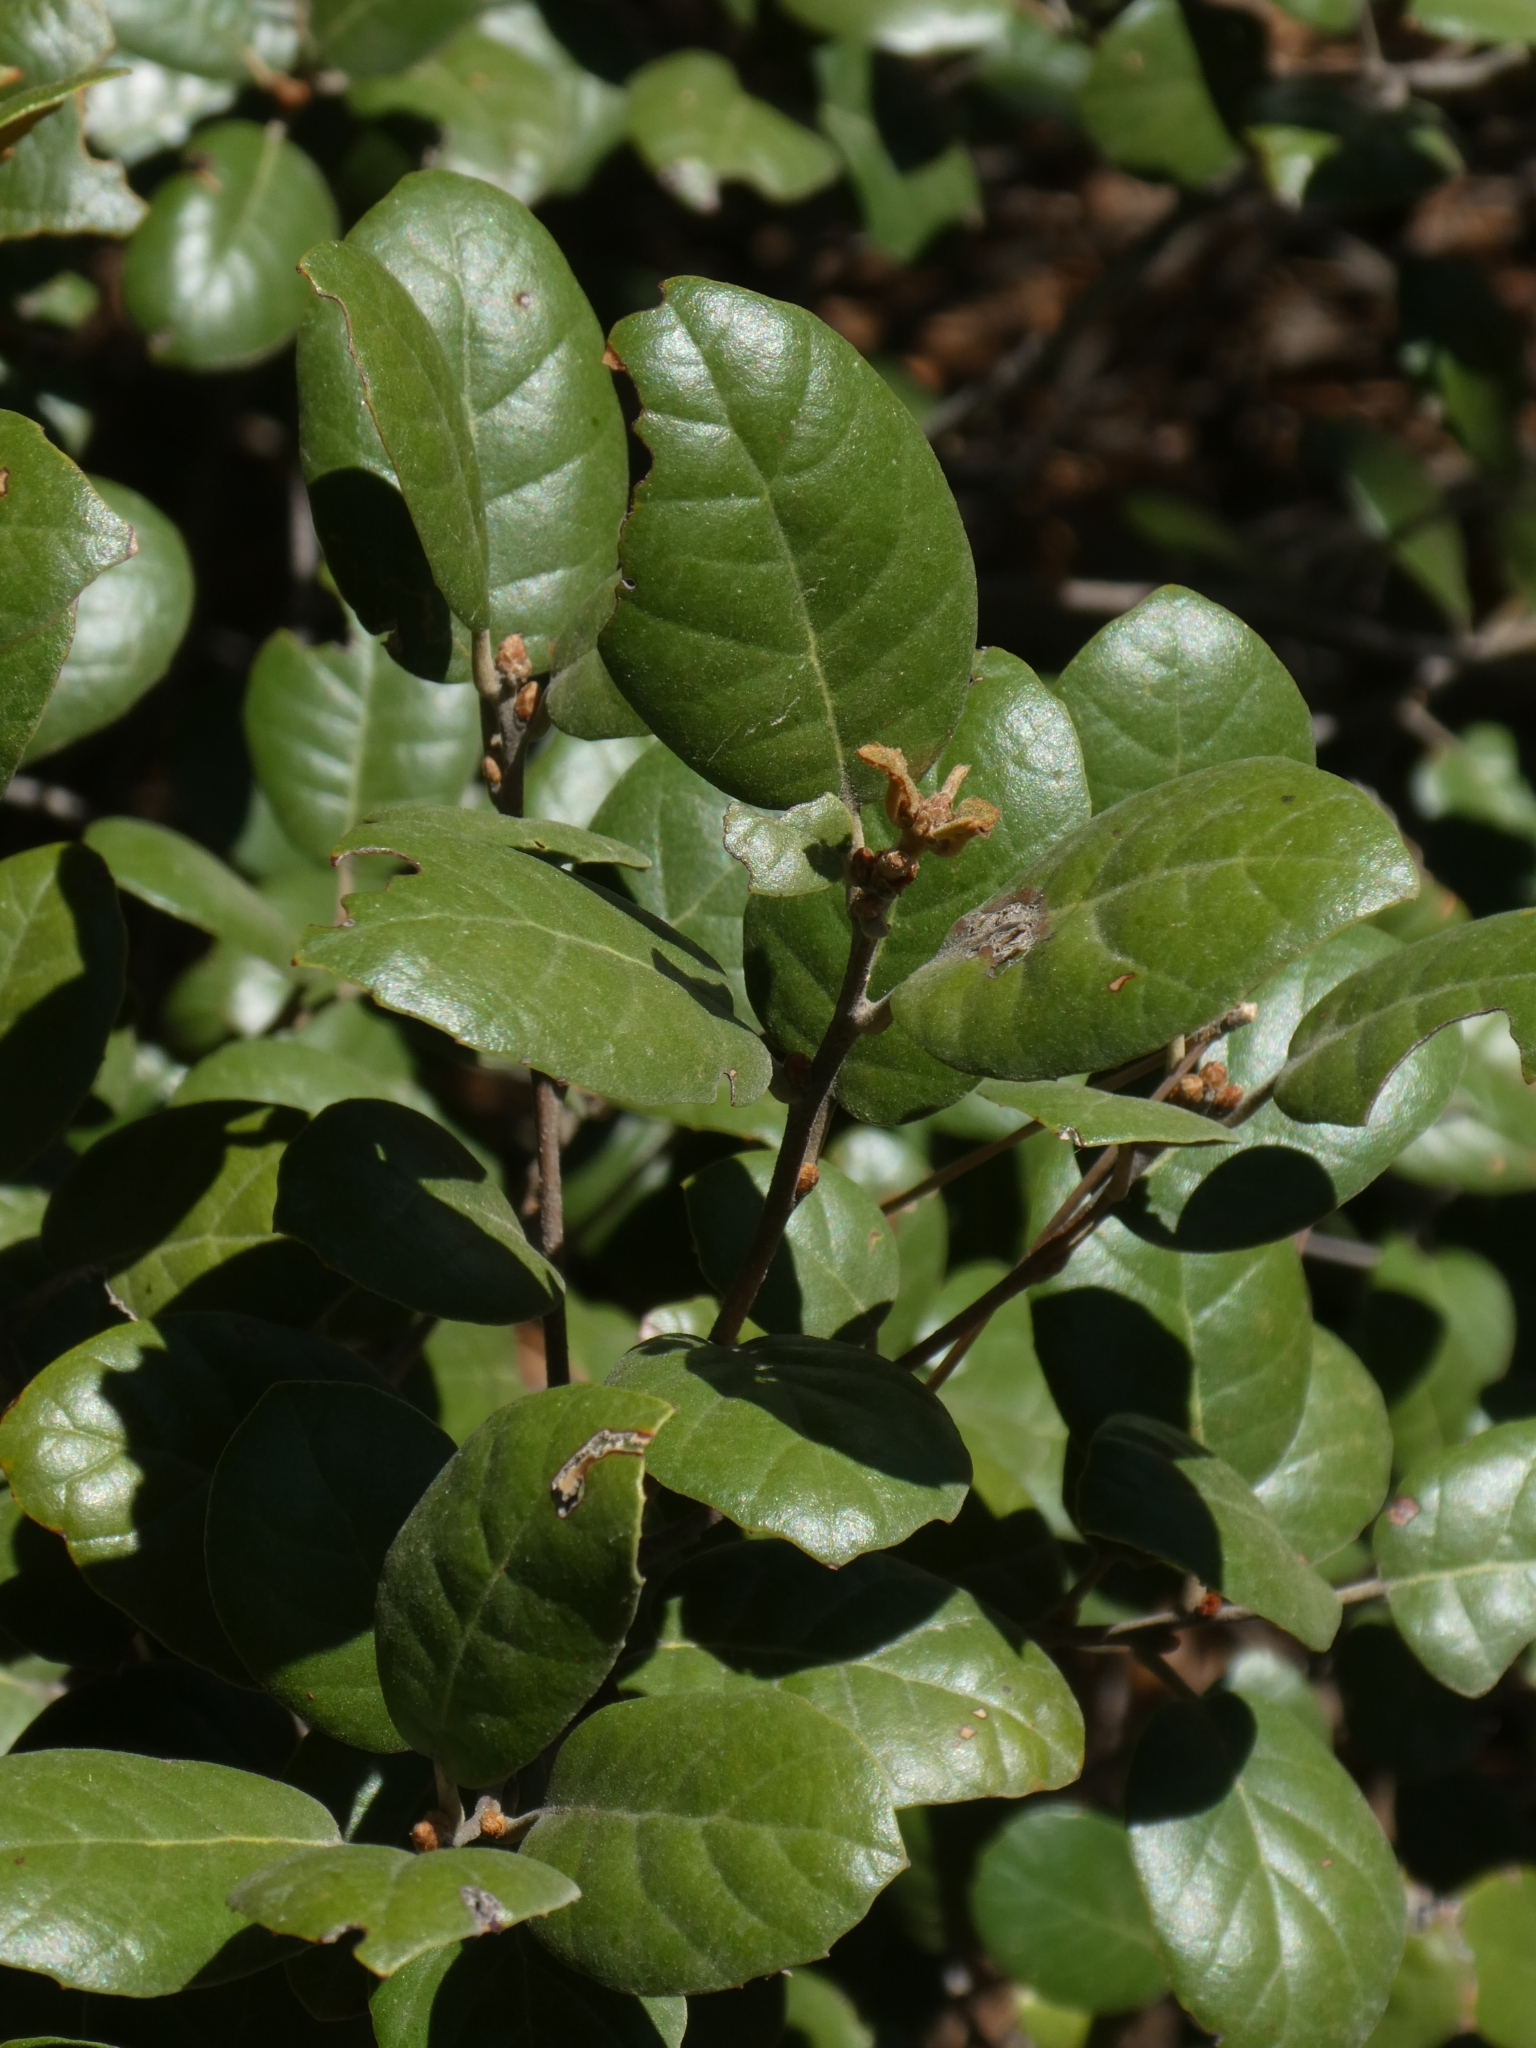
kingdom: Plantae
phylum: Tracheophyta
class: Magnoliopsida
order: Fagales
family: Fagaceae
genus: Quercus
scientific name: Quercus alnifolia
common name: Golden oak
